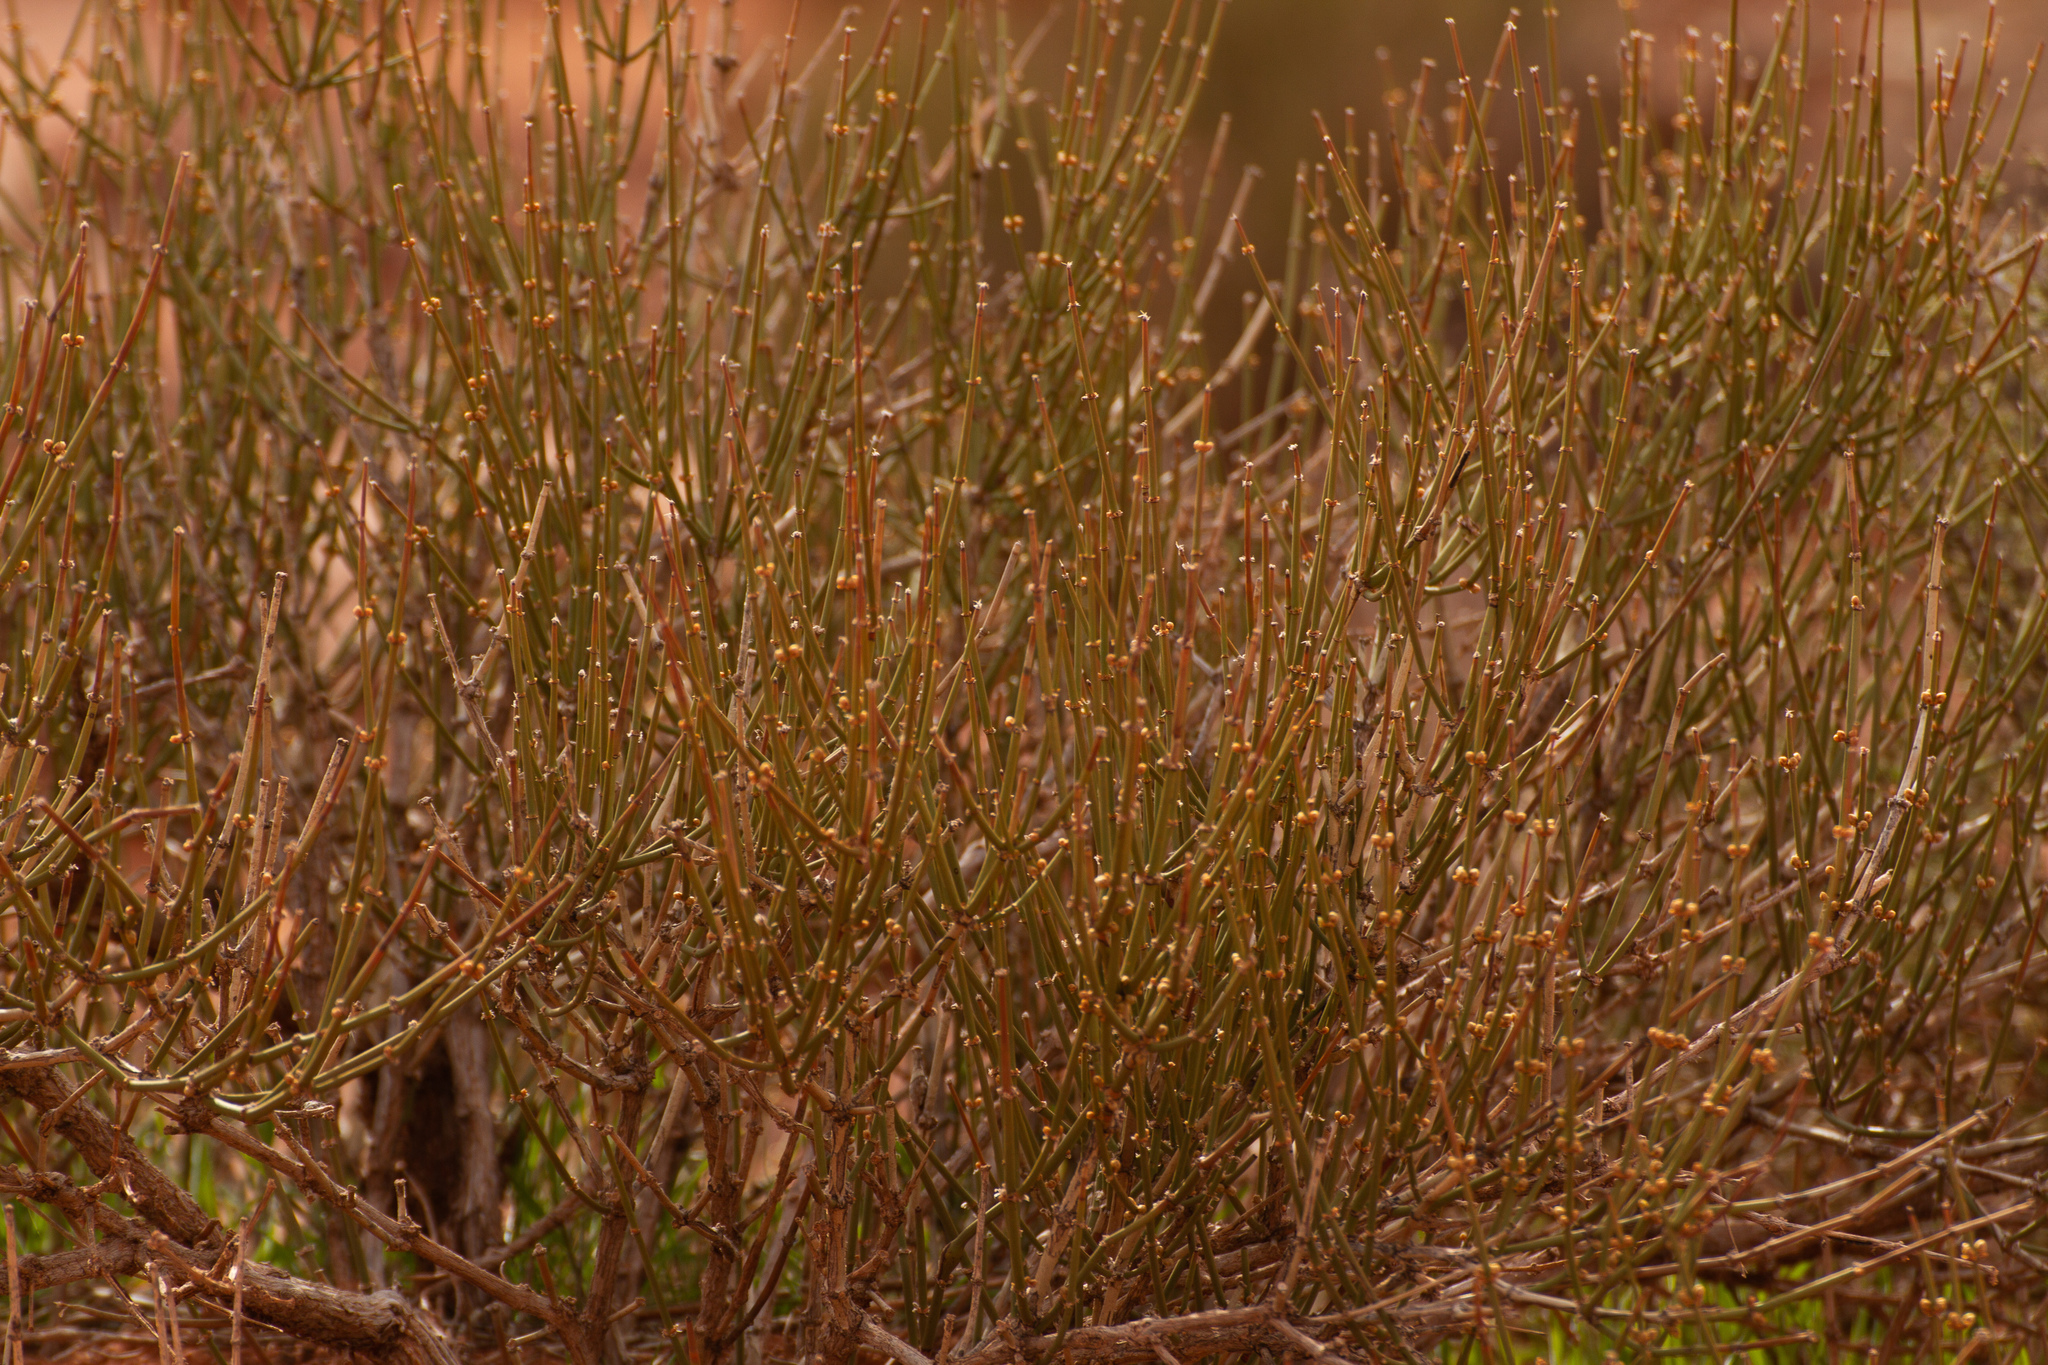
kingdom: Plantae
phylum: Tracheophyta
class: Gnetopsida
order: Ephedrales
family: Ephedraceae
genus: Ephedra
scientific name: Ephedra viridis
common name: Green ephedra
